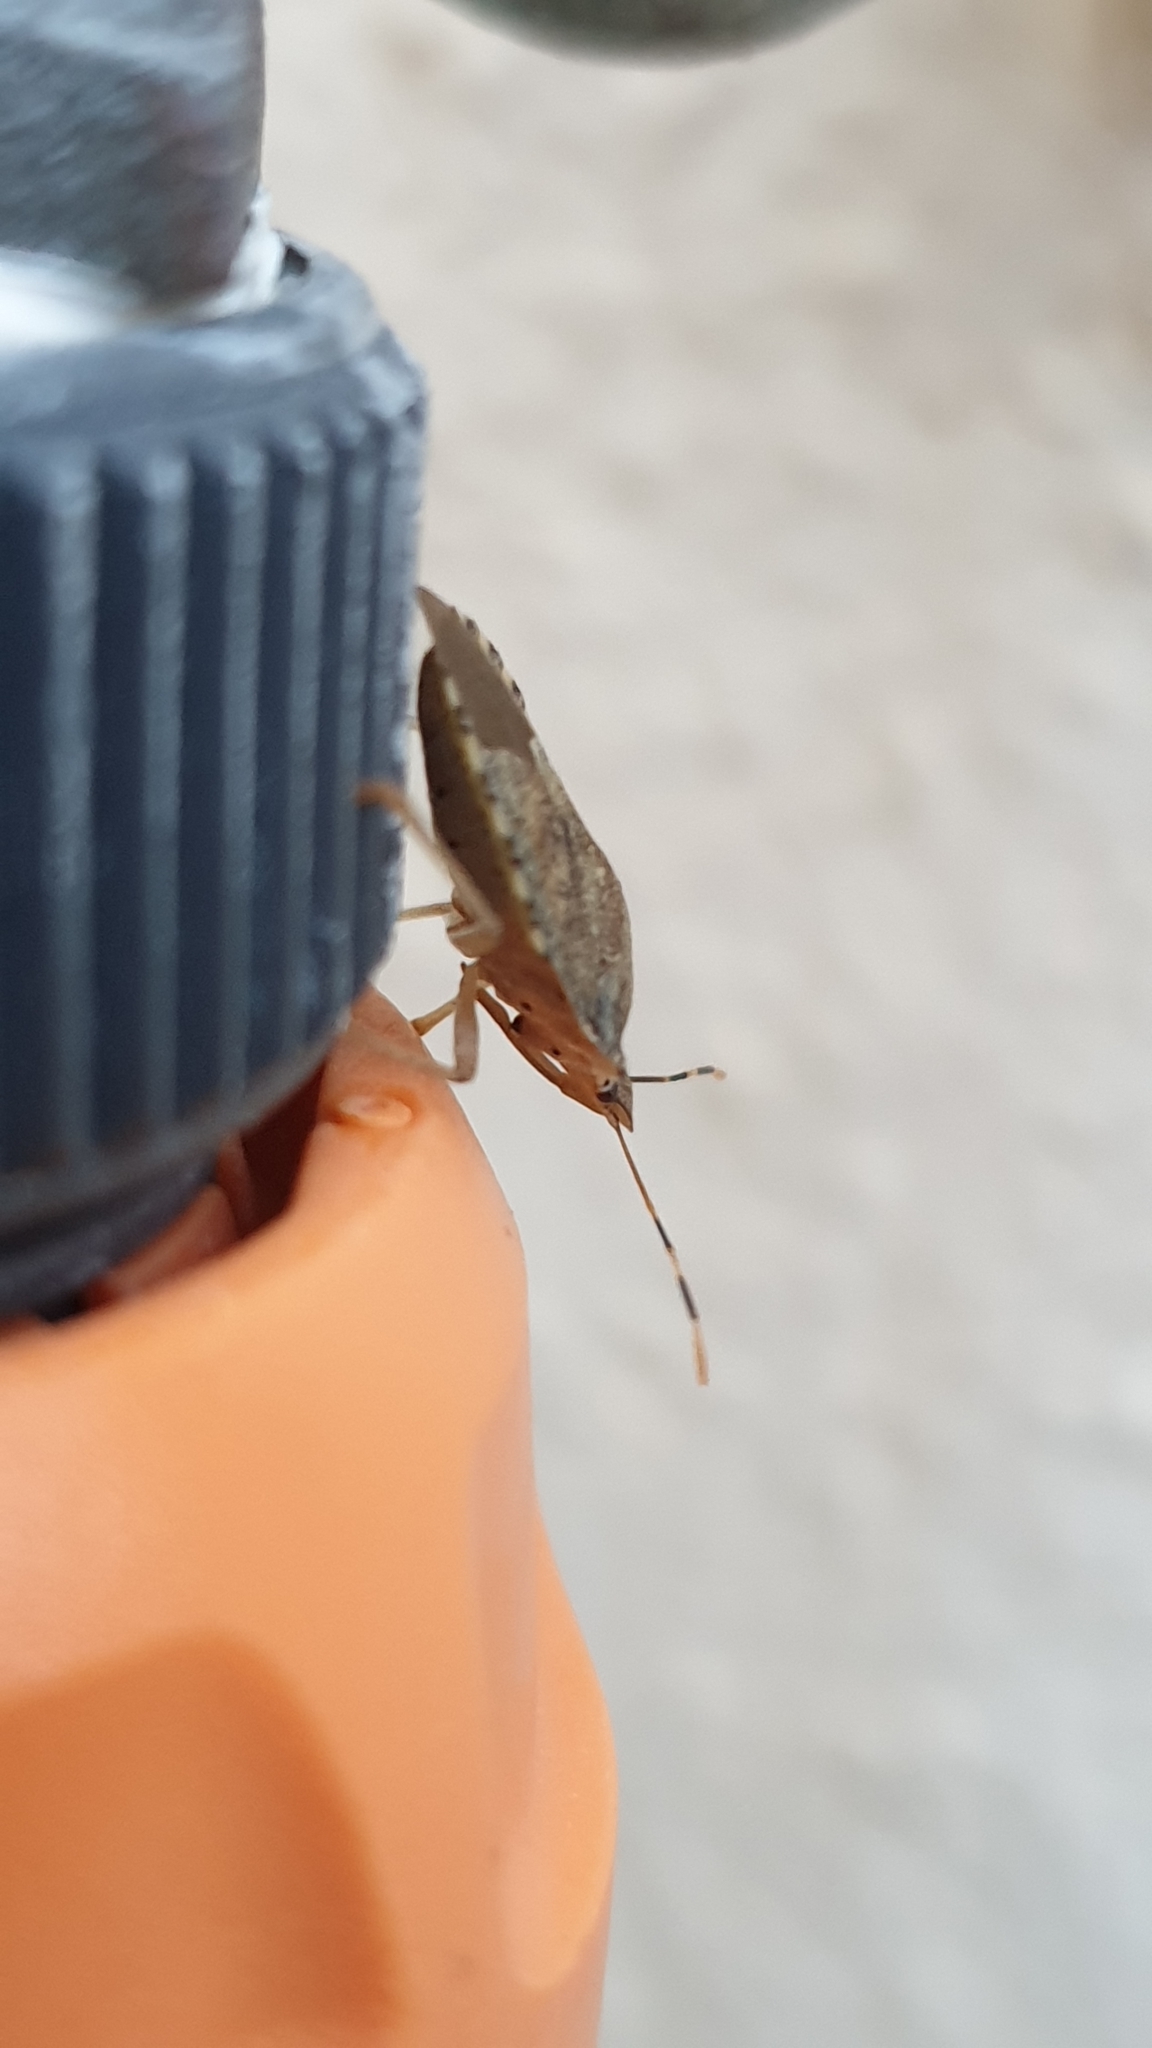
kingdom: Animalia
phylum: Arthropoda
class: Insecta
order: Hemiptera
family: Pentatomidae
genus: Arma
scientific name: Arma custos
